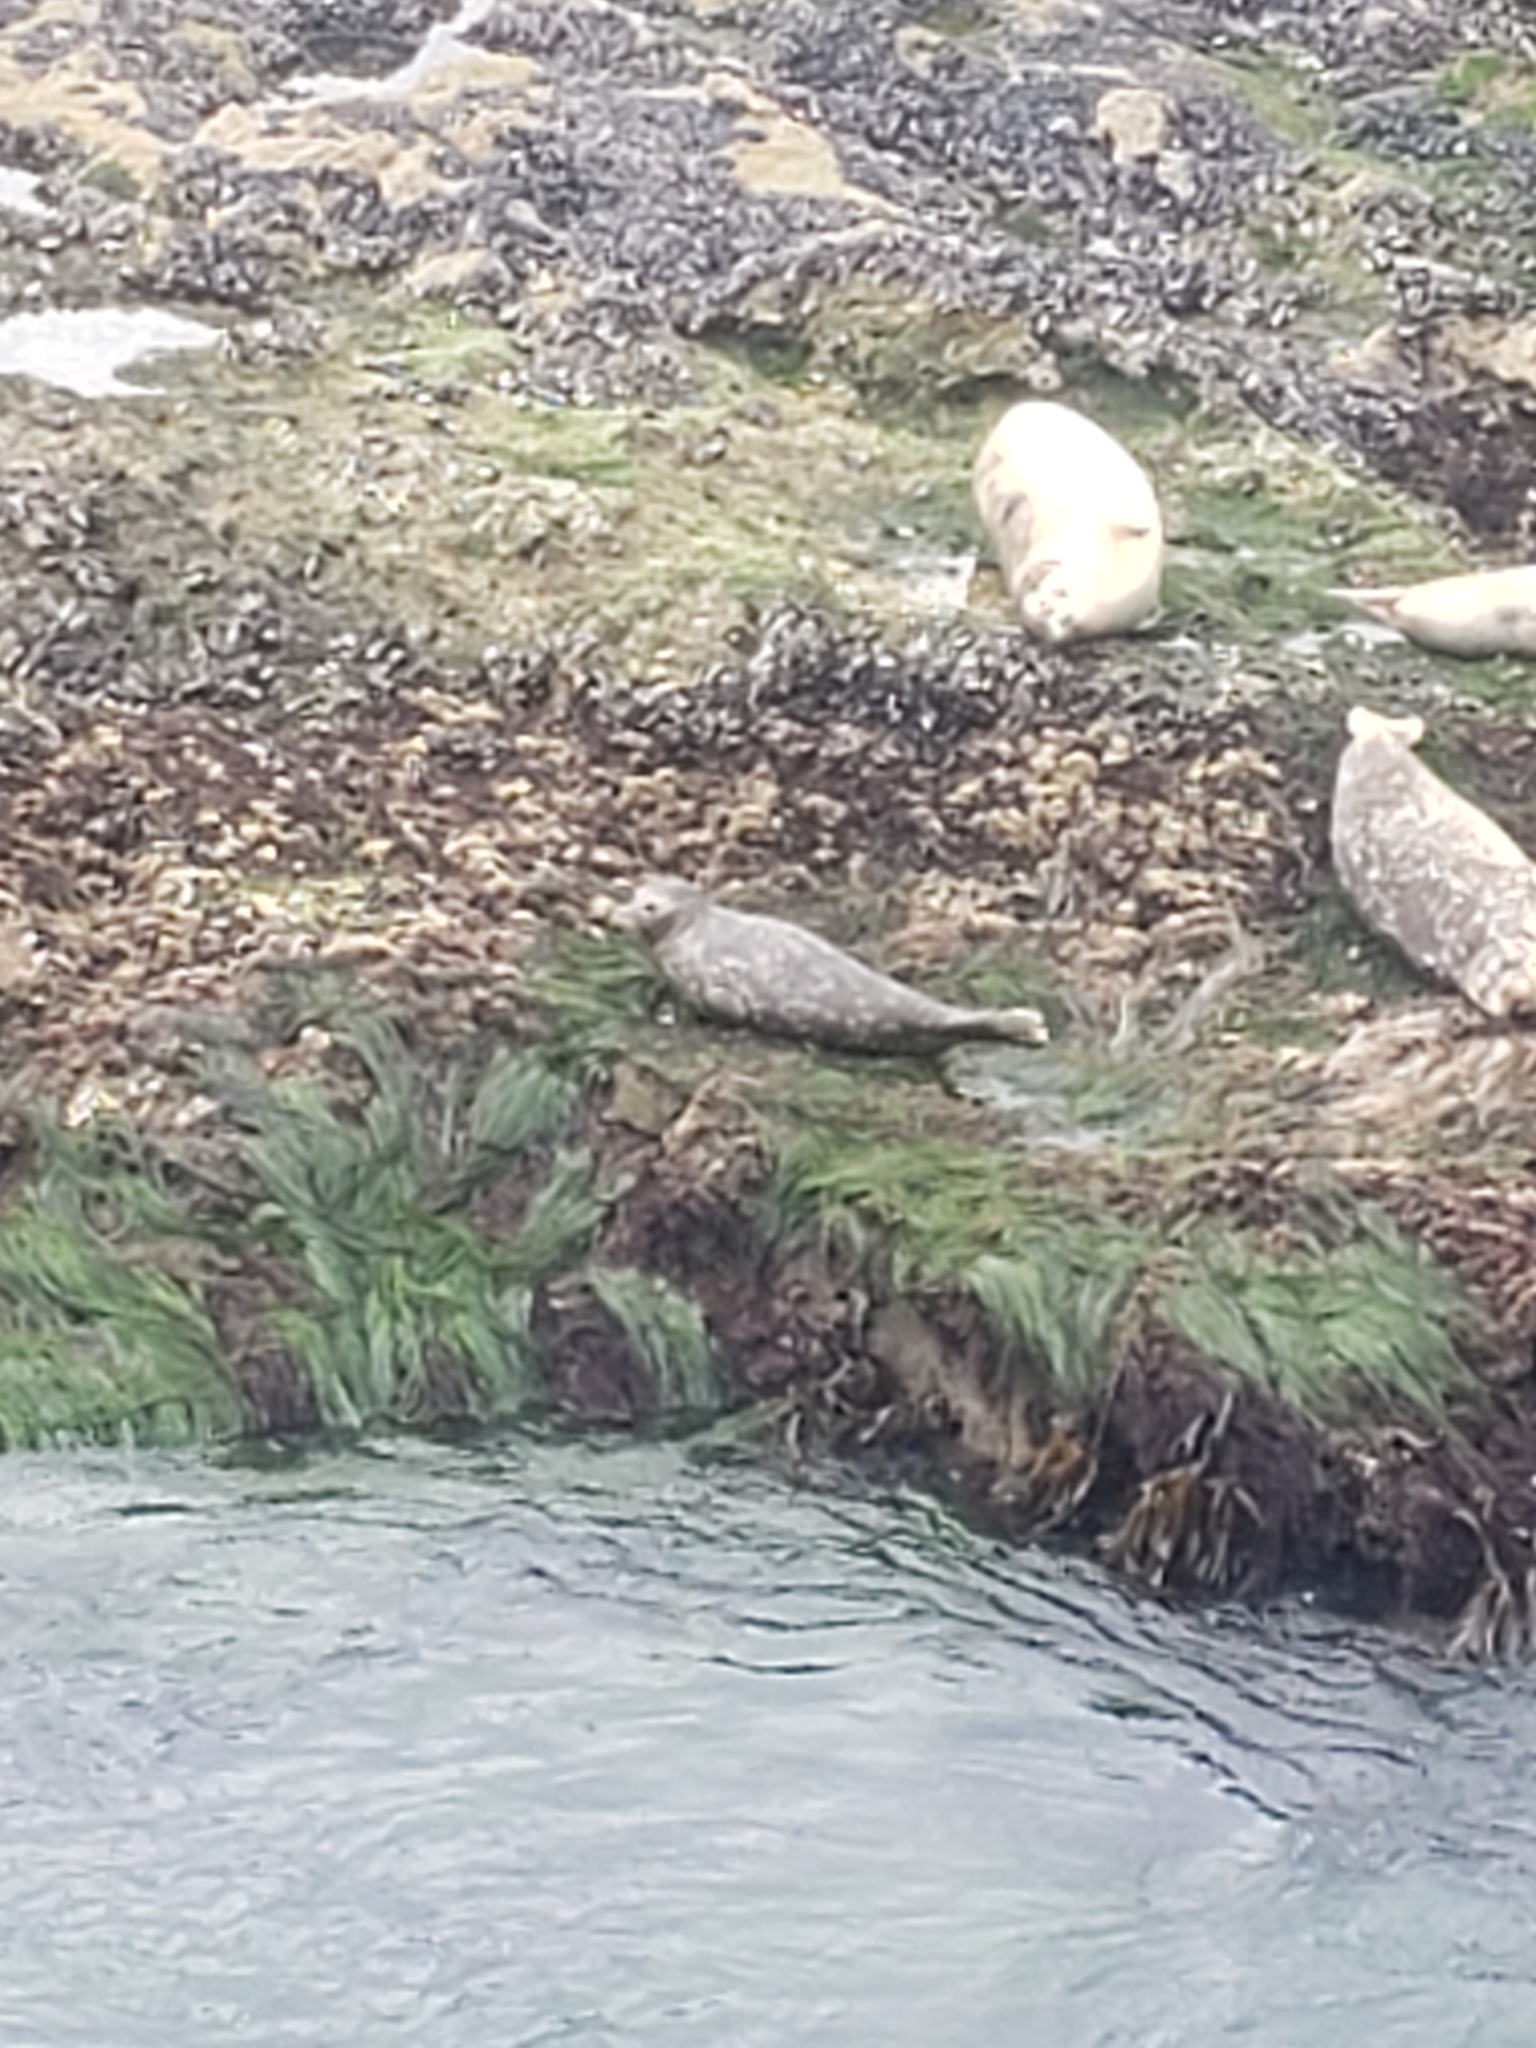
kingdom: Animalia
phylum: Chordata
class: Mammalia
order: Carnivora
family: Phocidae
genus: Phoca
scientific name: Phoca vitulina
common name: Harbor seal
